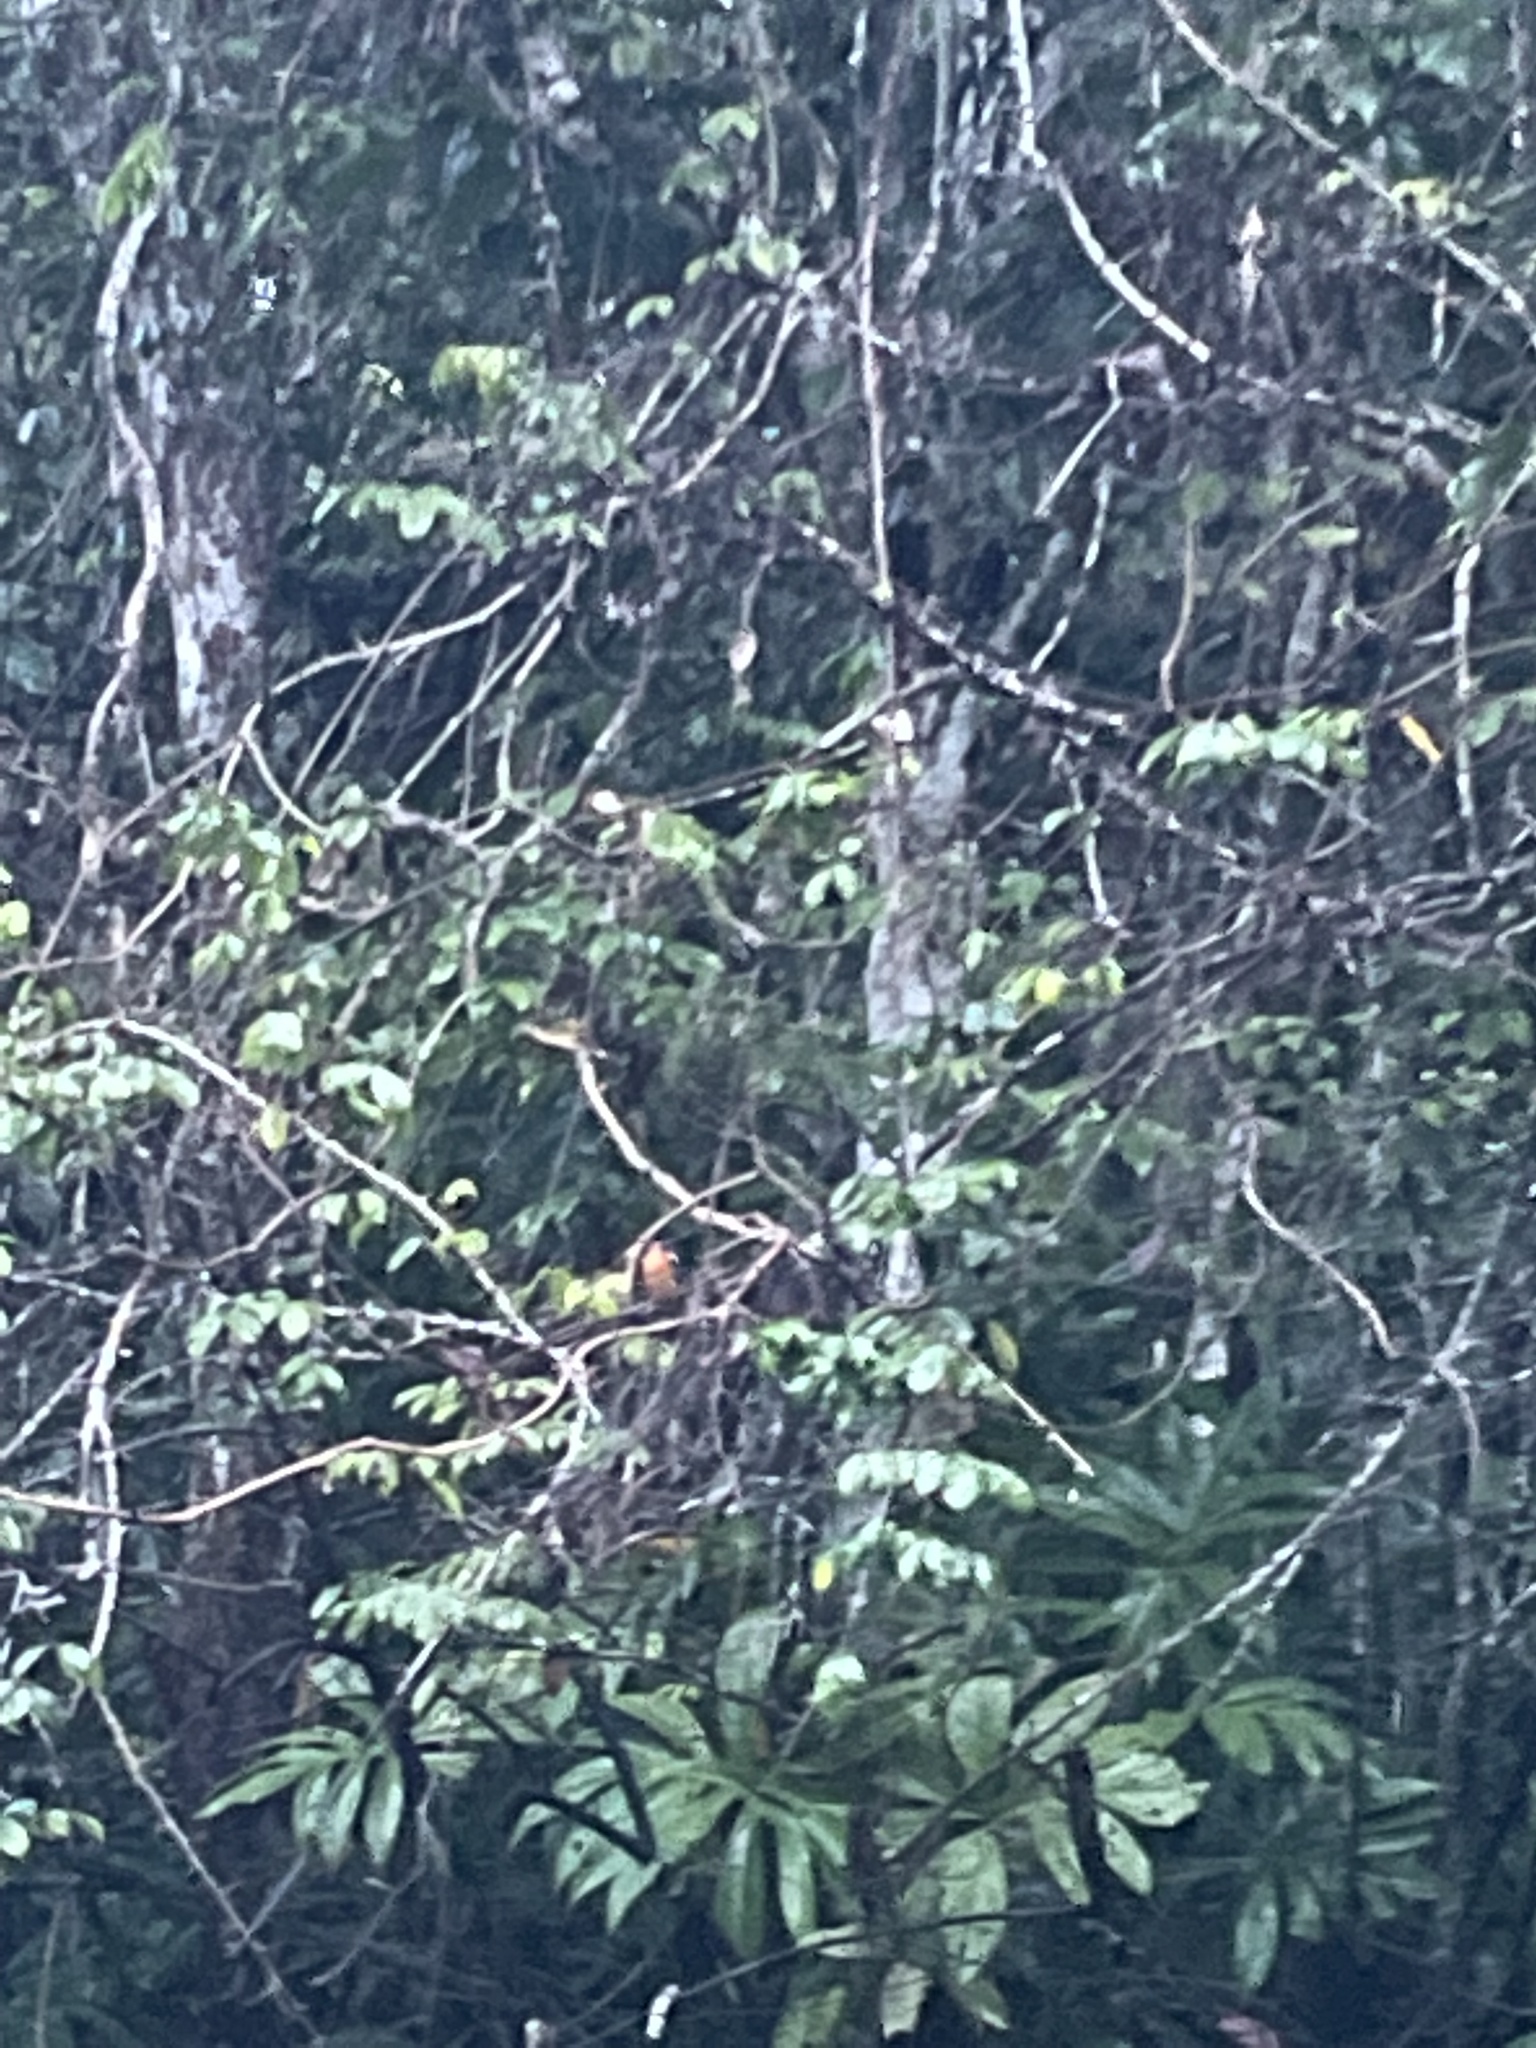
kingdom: Animalia
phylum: Chordata
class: Aves
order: Coraciiformes
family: Alcedinidae
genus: Alcedo
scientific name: Alcedo meninting
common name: Blue-eared kingfisher
